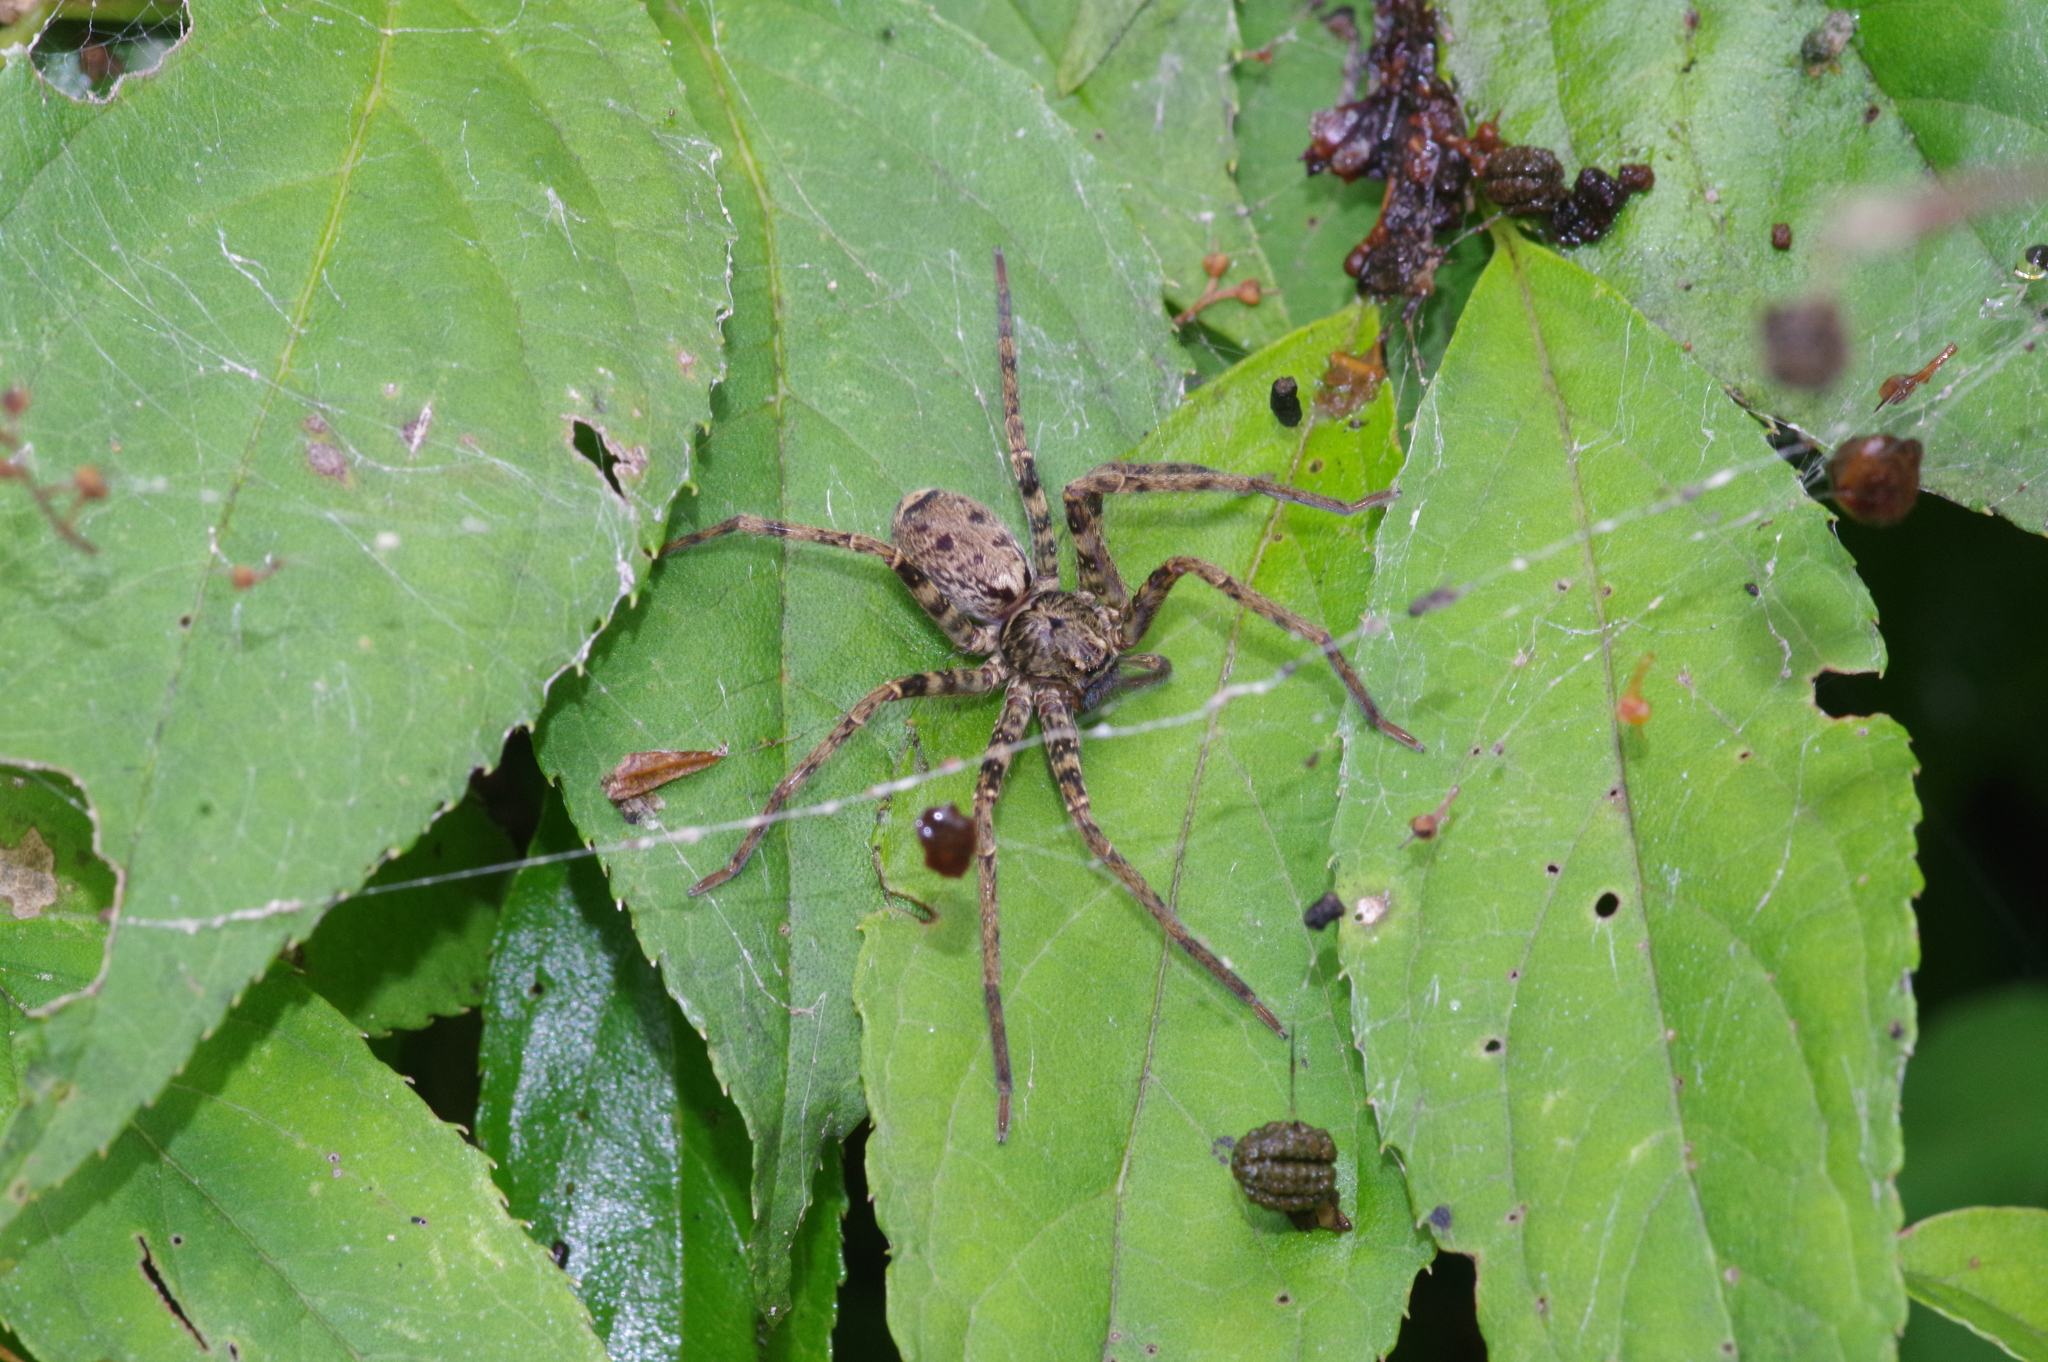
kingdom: Animalia
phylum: Arthropoda
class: Arachnida
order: Araneae
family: Sparassidae
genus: Sinopoda
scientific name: Sinopoda forcipata
